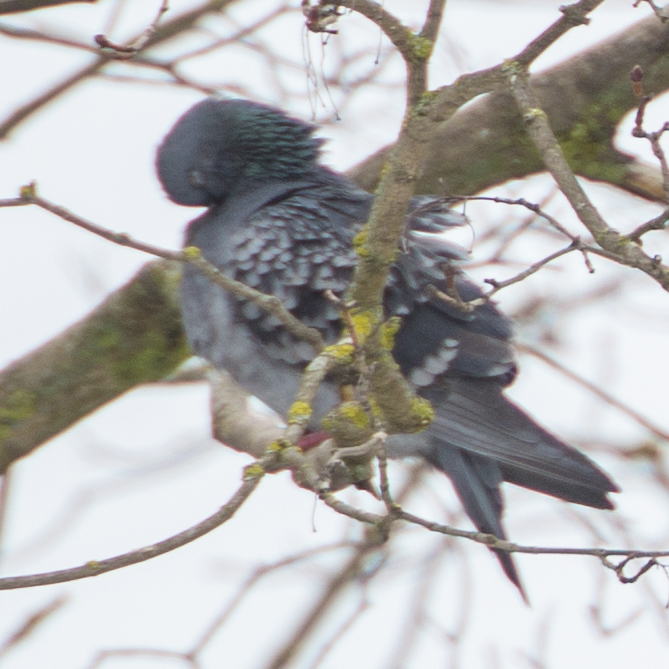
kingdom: Animalia
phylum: Chordata
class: Aves
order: Columbiformes
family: Columbidae
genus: Columba
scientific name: Columba livia
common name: Rock pigeon
